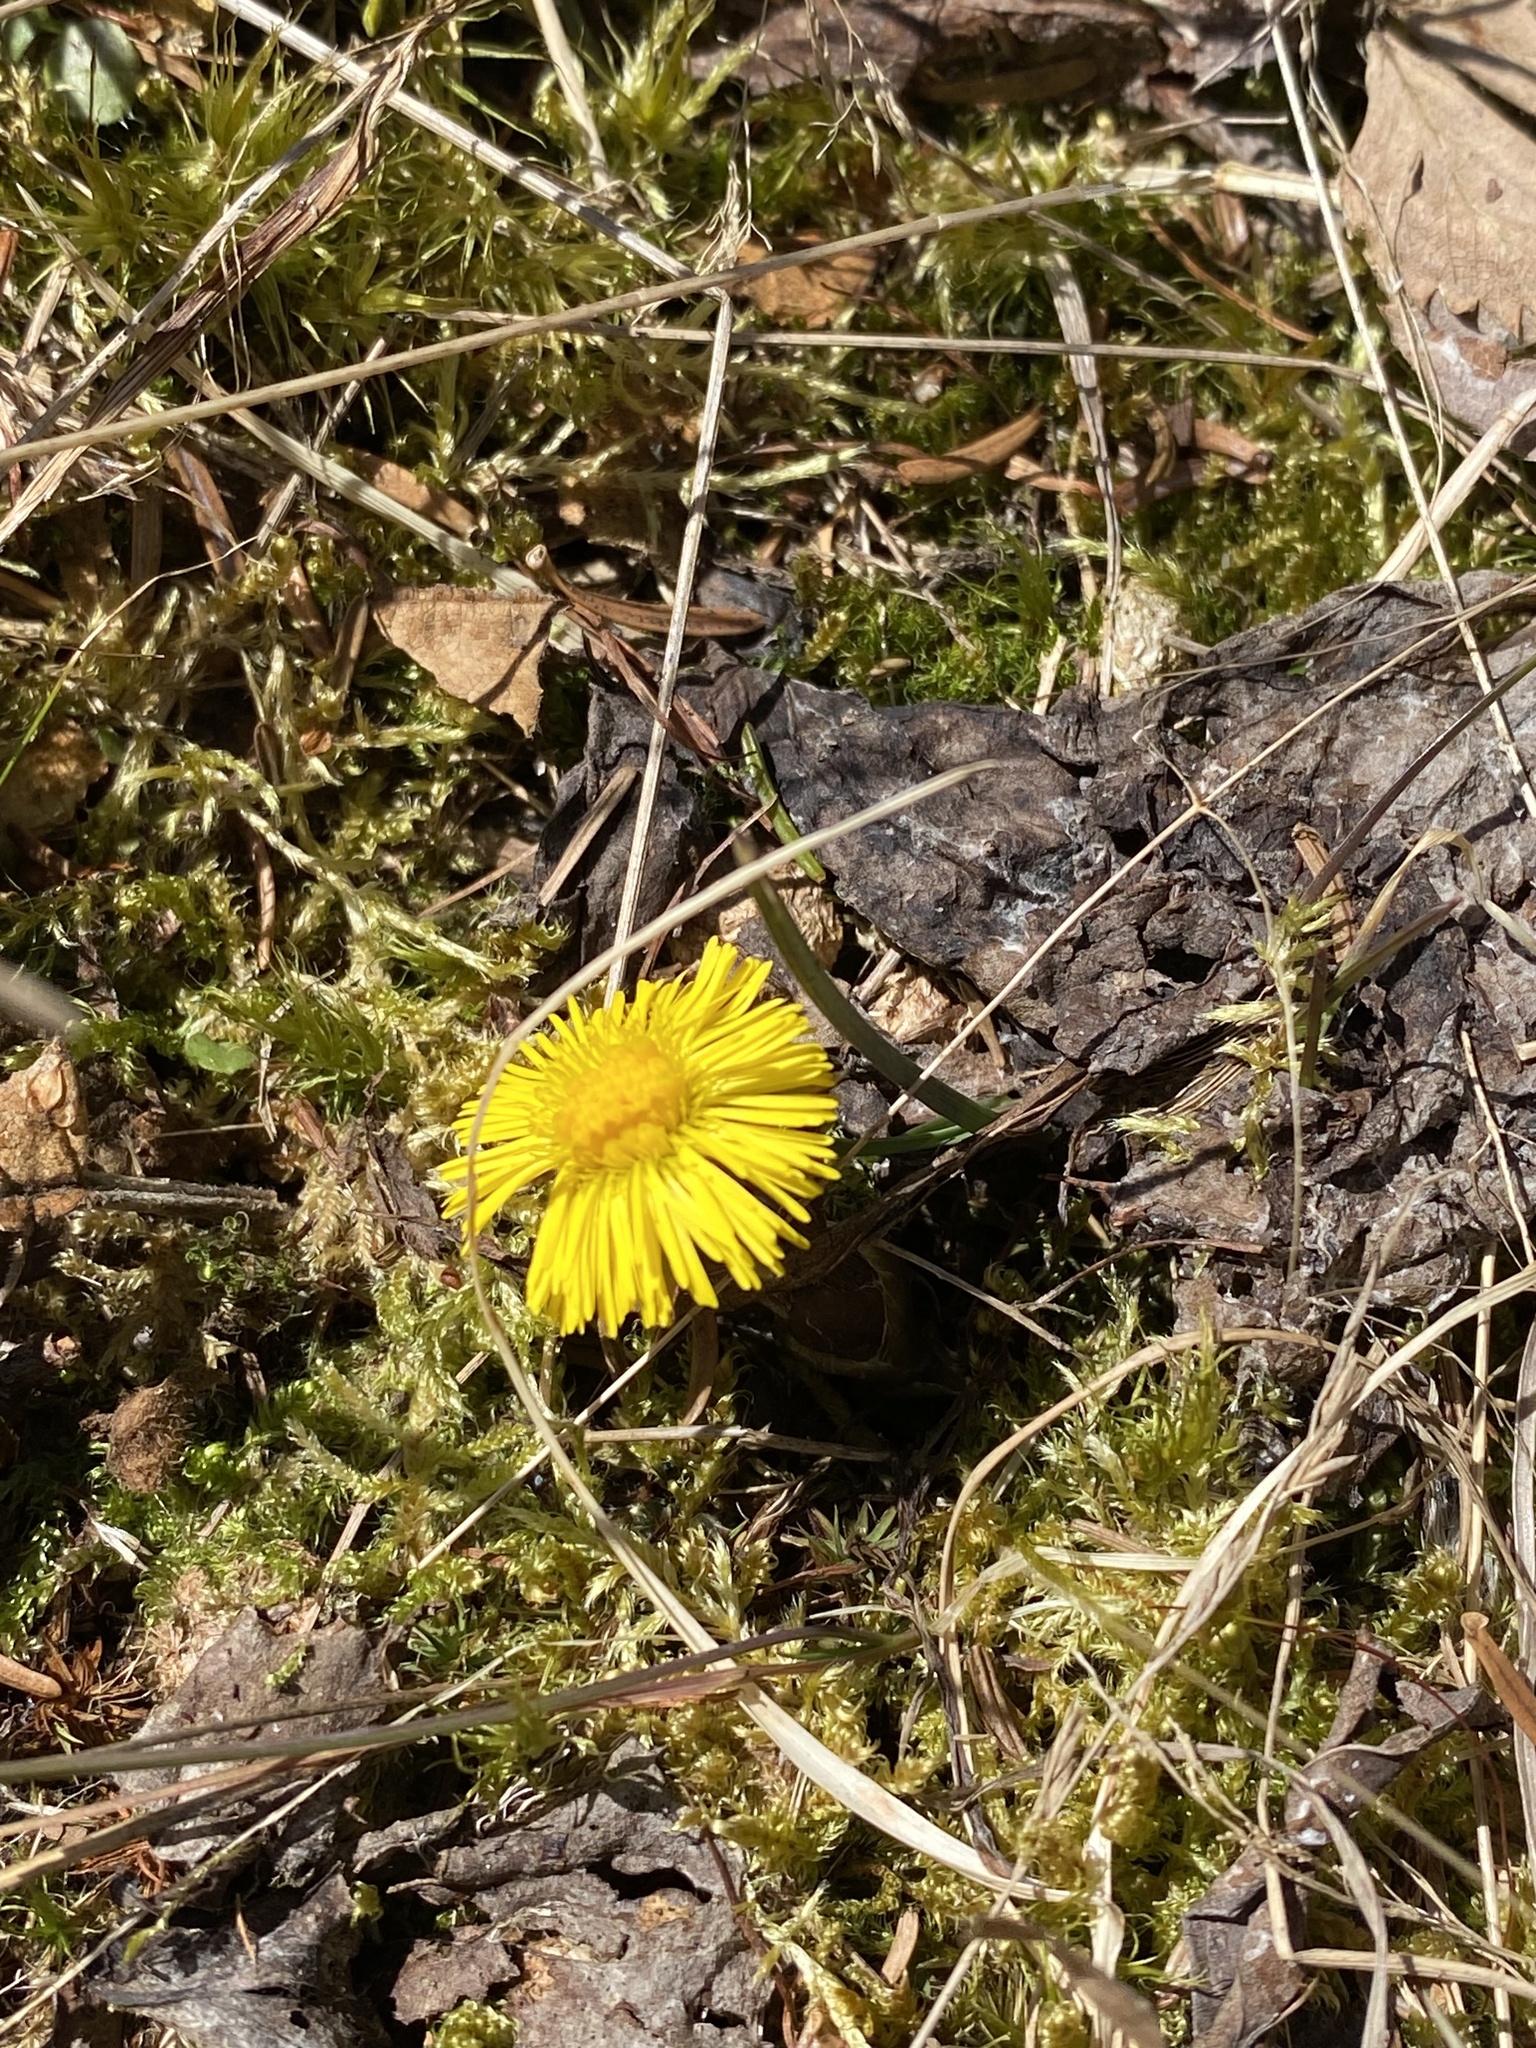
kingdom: Plantae
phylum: Tracheophyta
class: Magnoliopsida
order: Asterales
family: Asteraceae
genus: Tussilago
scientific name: Tussilago farfara
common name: Coltsfoot
